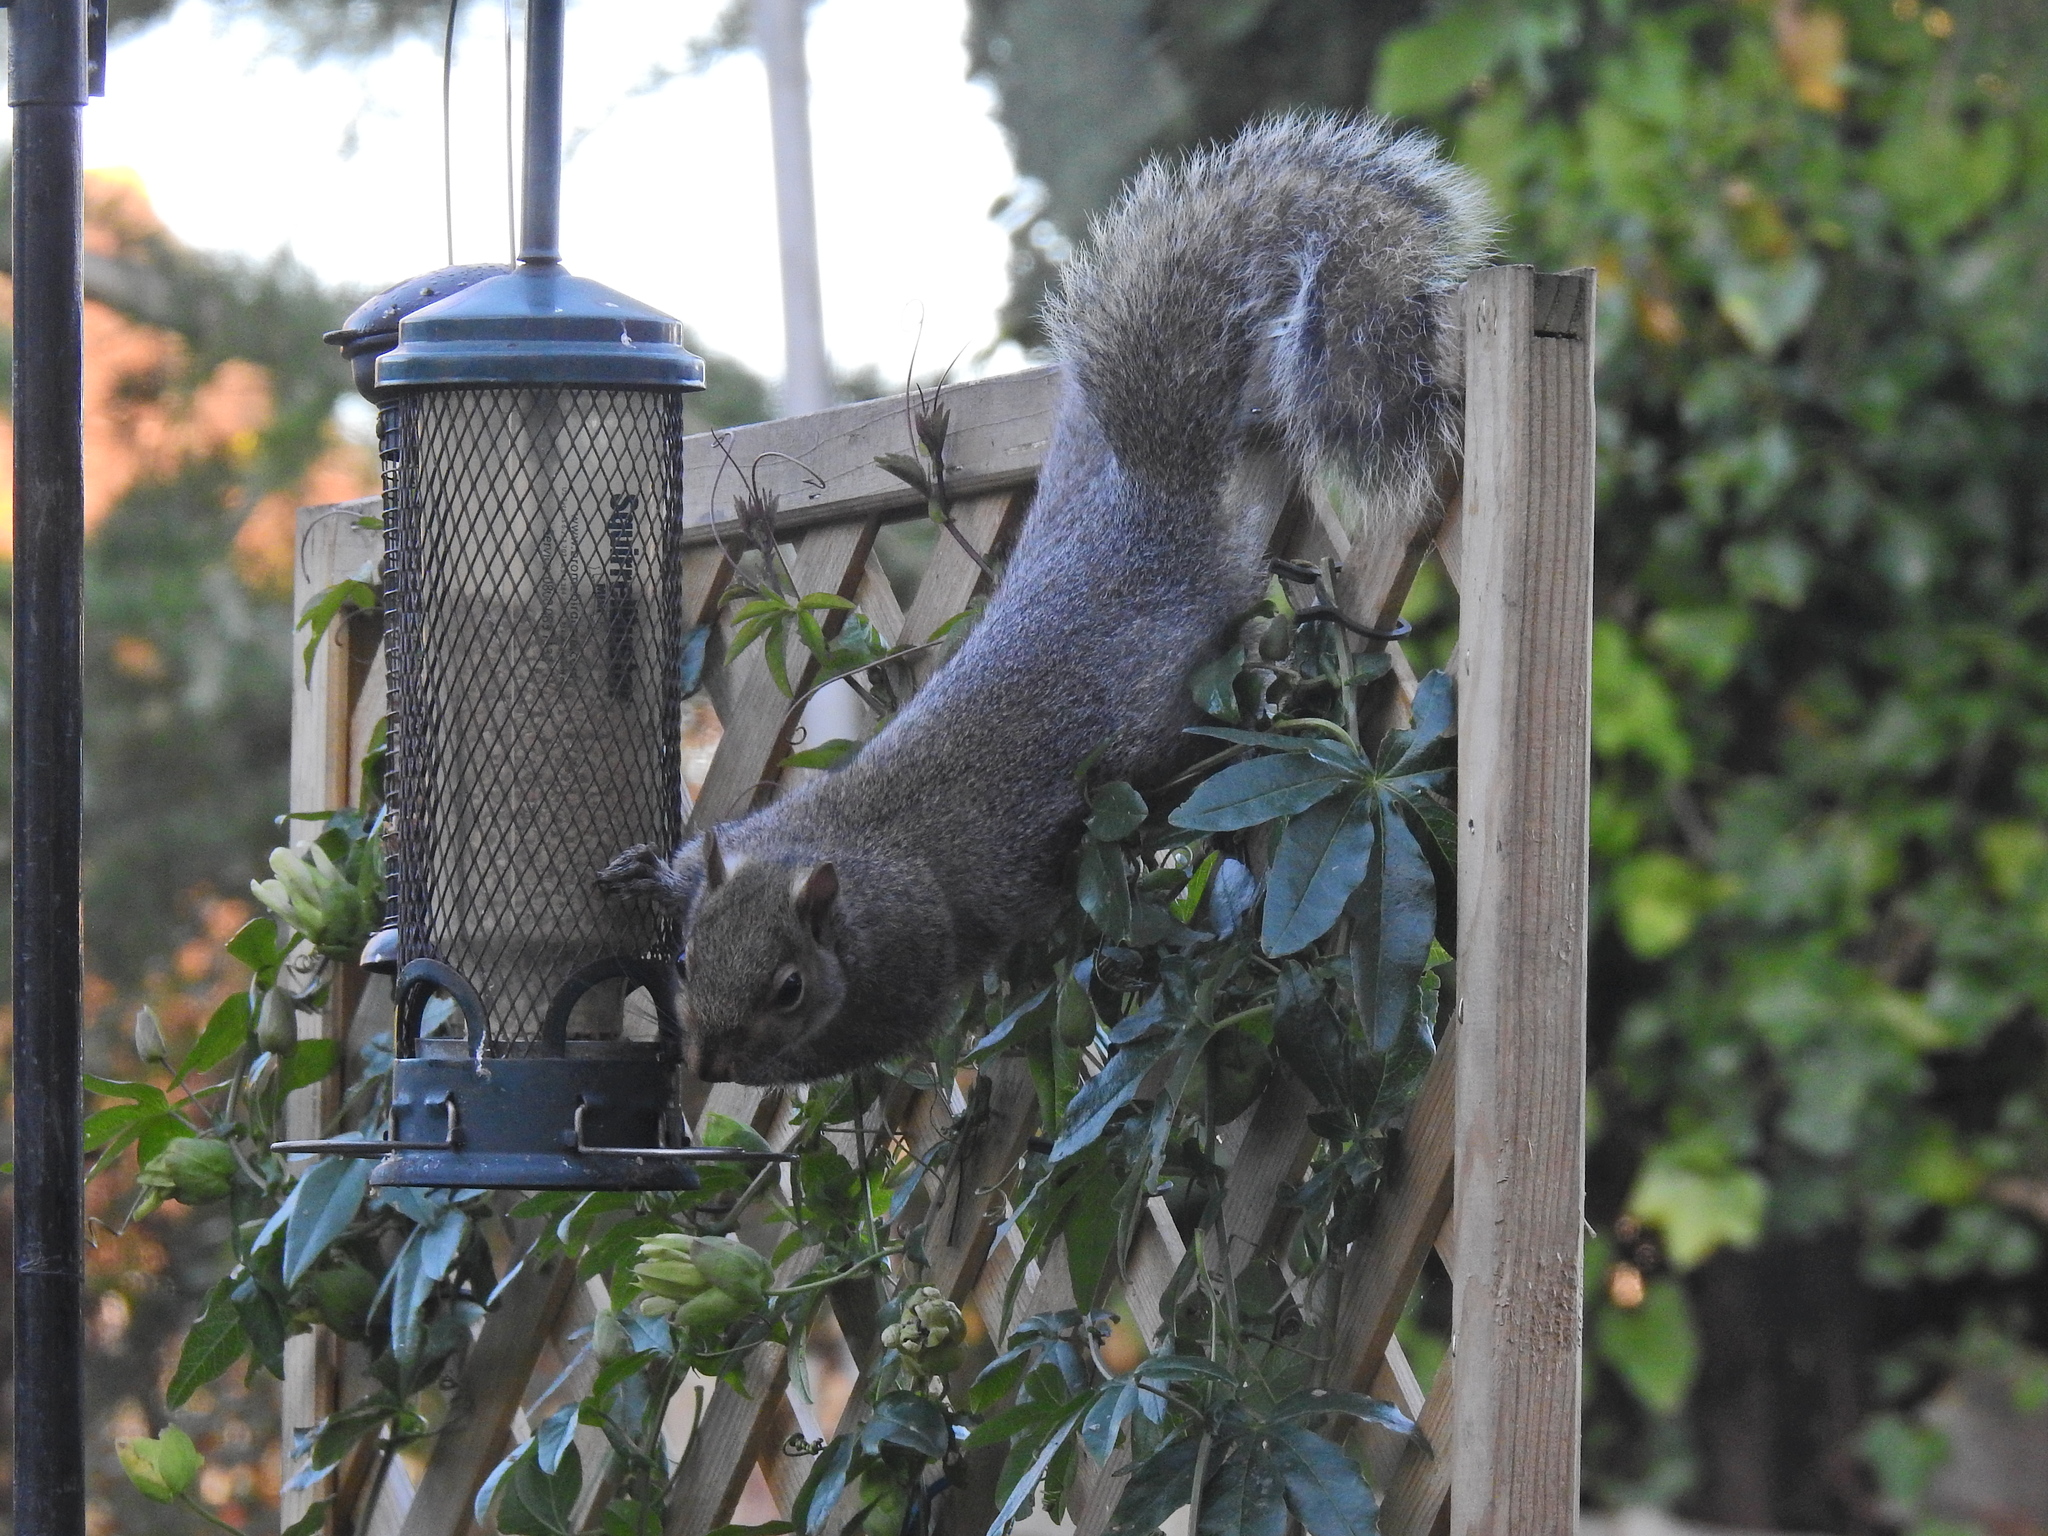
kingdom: Animalia
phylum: Chordata
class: Mammalia
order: Rodentia
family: Sciuridae
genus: Sciurus
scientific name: Sciurus carolinensis
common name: Eastern gray squirrel
